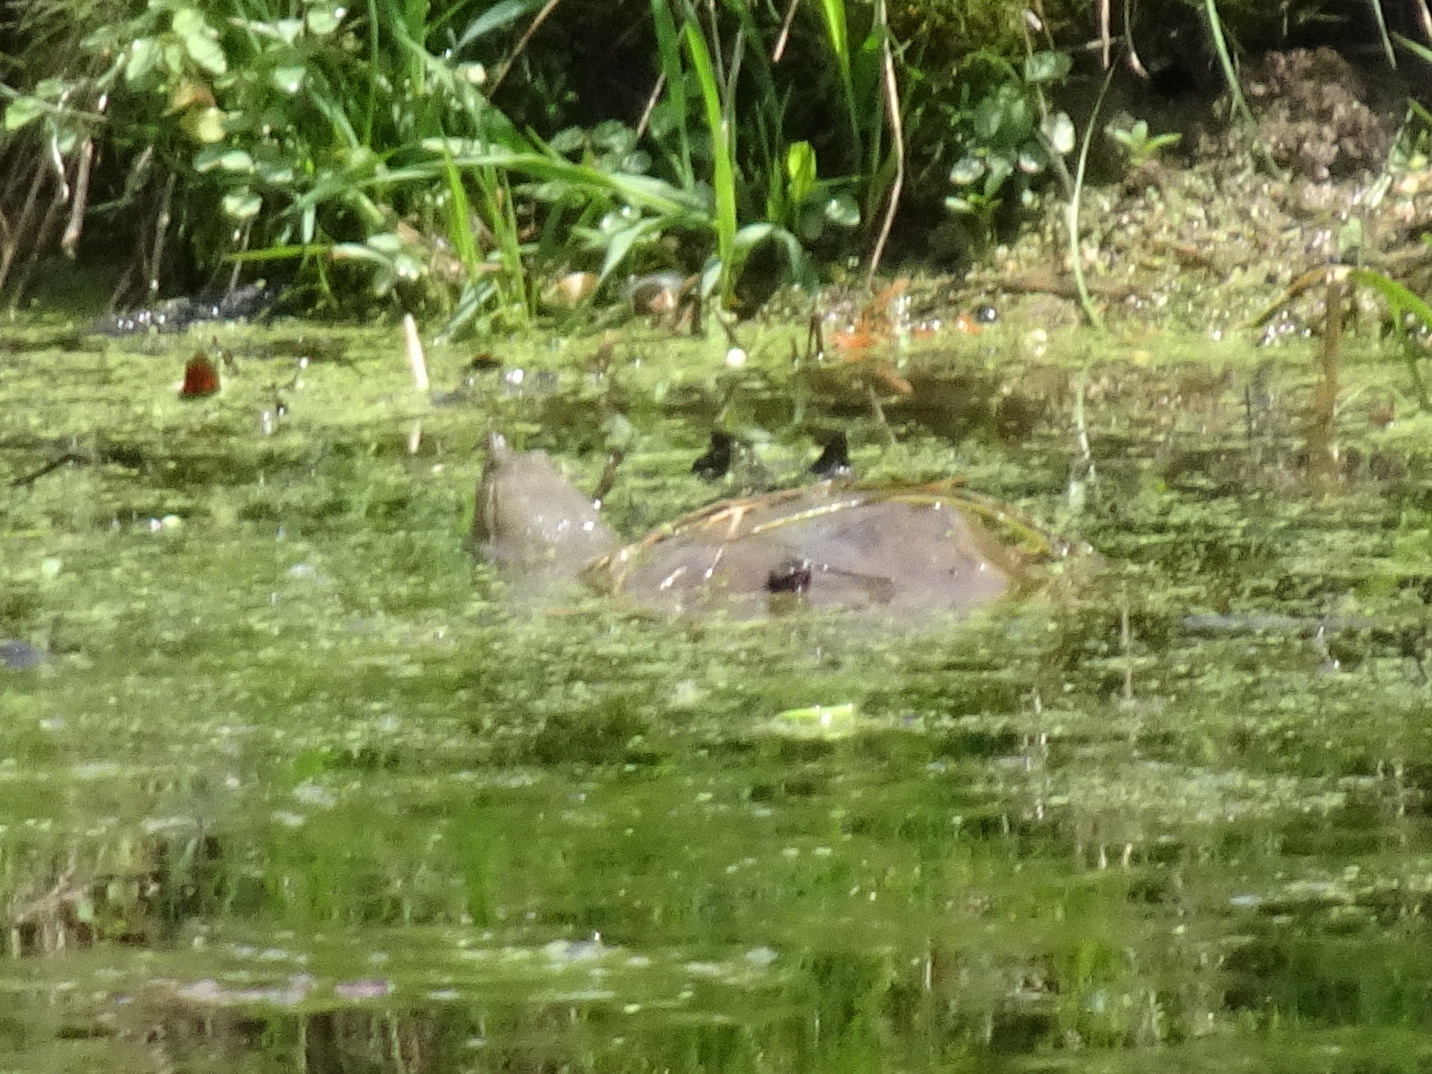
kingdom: Animalia
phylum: Chordata
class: Testudines
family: Trionychidae
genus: Apalone
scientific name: Apalone spinifera
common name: Spiny softshell turtle
